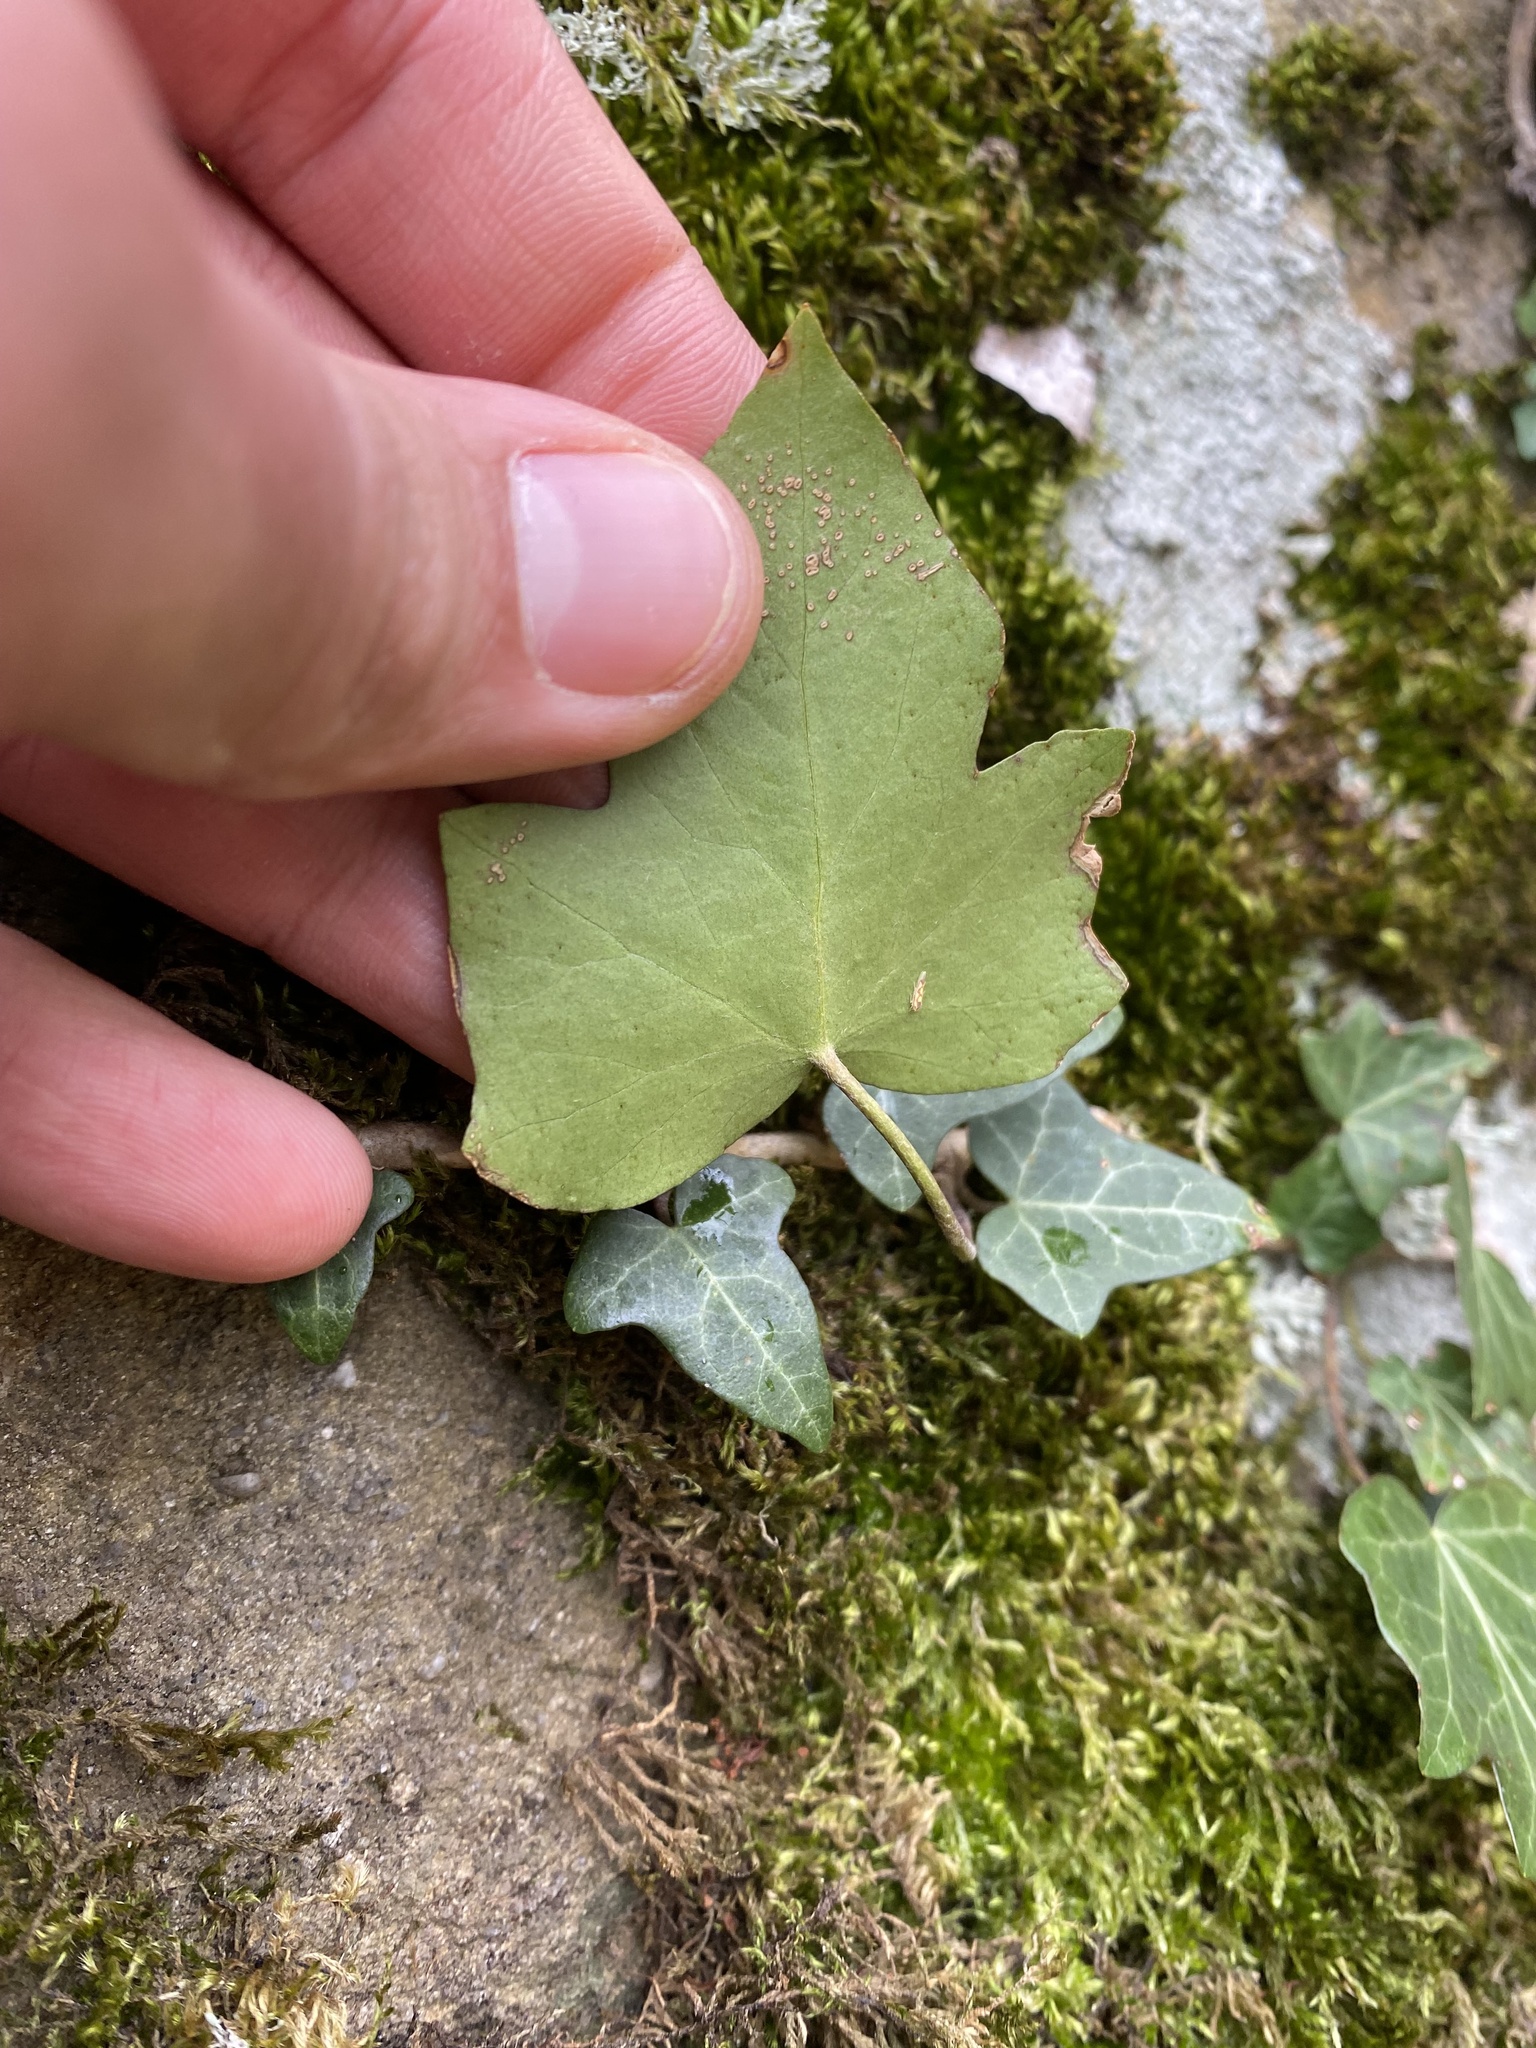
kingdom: Plantae
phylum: Tracheophyta
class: Magnoliopsida
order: Apiales
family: Araliaceae
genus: Hedera
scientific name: Hedera helix
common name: Ivy
